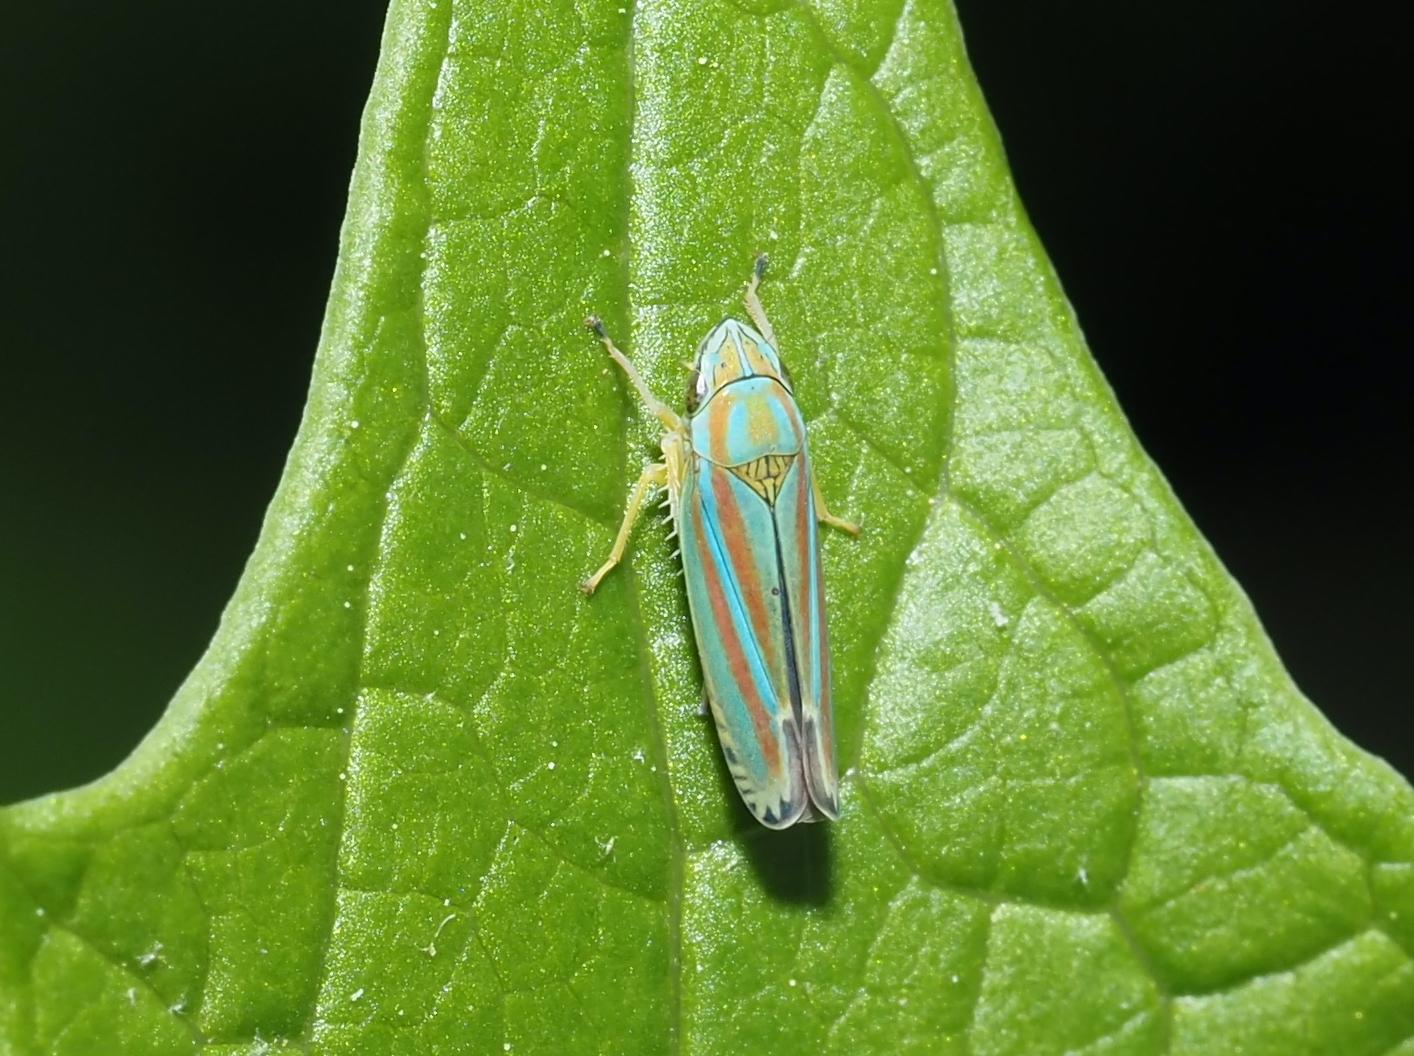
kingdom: Animalia
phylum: Arthropoda
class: Insecta
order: Hemiptera
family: Cicadellidae
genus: Graphocephala
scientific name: Graphocephala versuta
